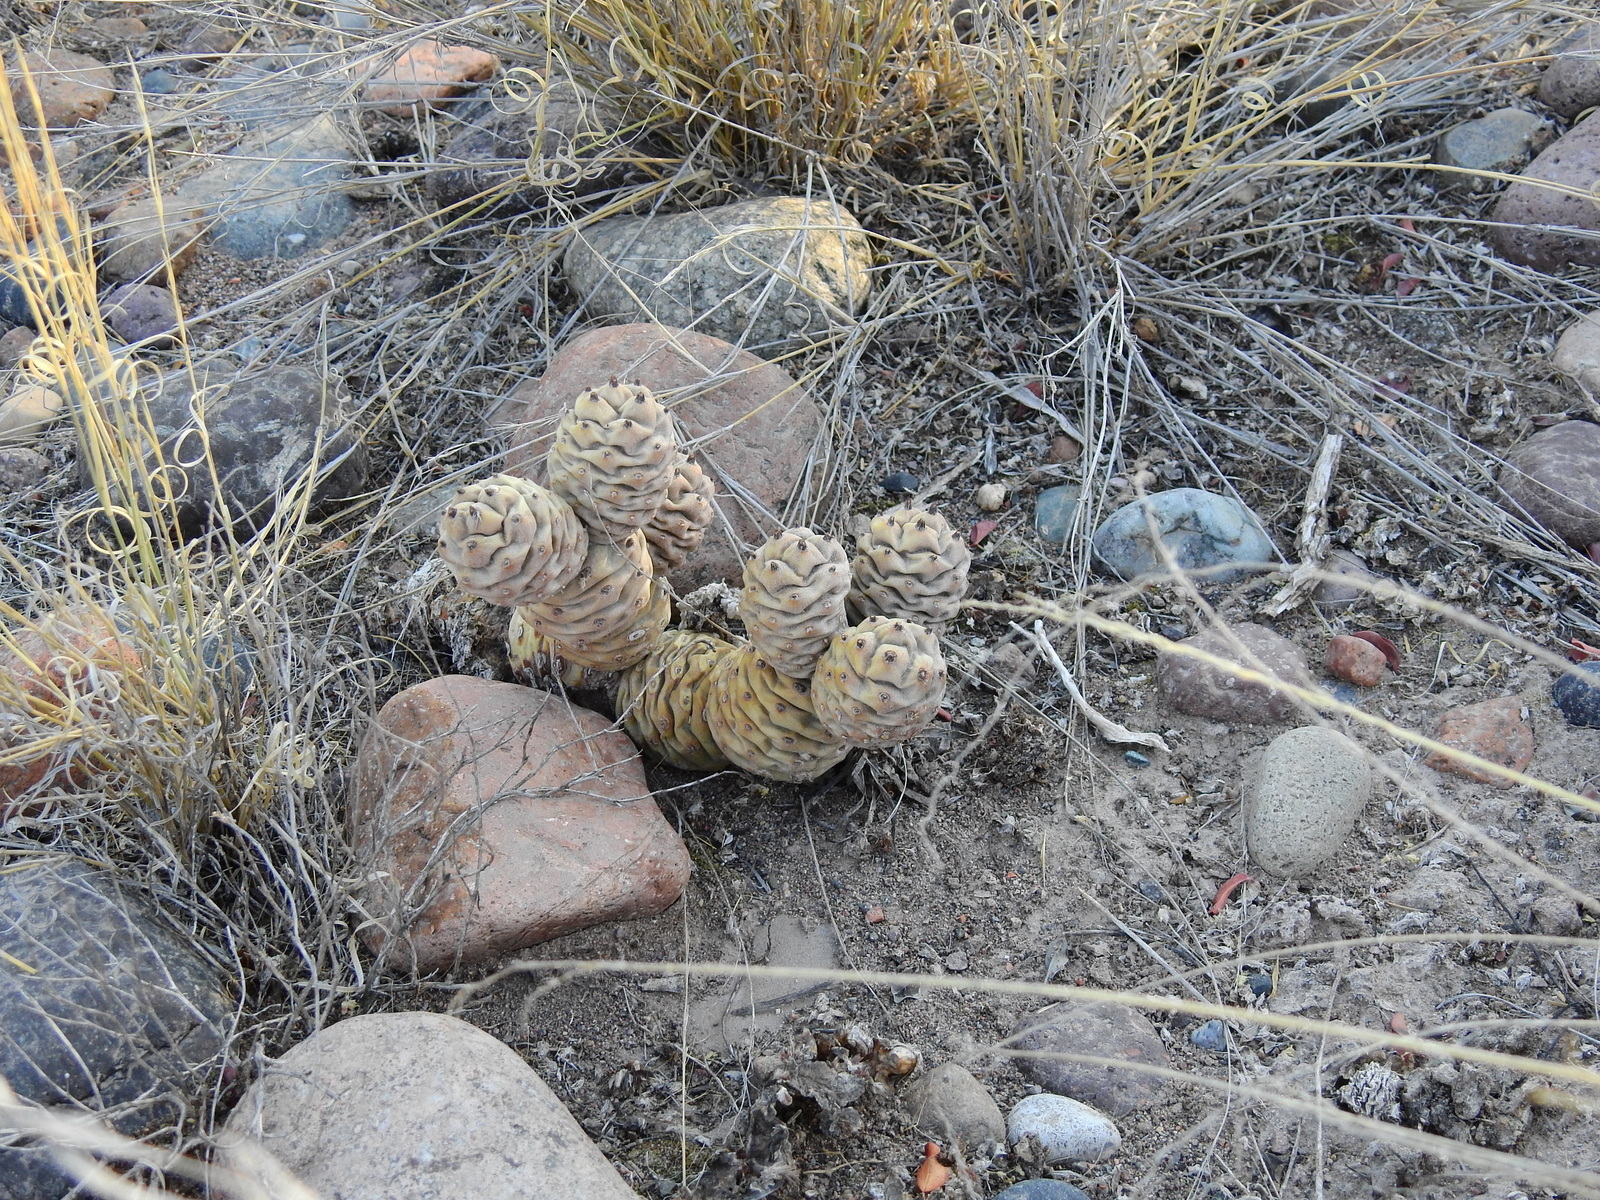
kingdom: Plantae
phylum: Tracheophyta
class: Magnoliopsida
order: Caryophyllales
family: Cactaceae
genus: Tephrocactus
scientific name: Tephrocactus articulatus
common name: Paper cactus
